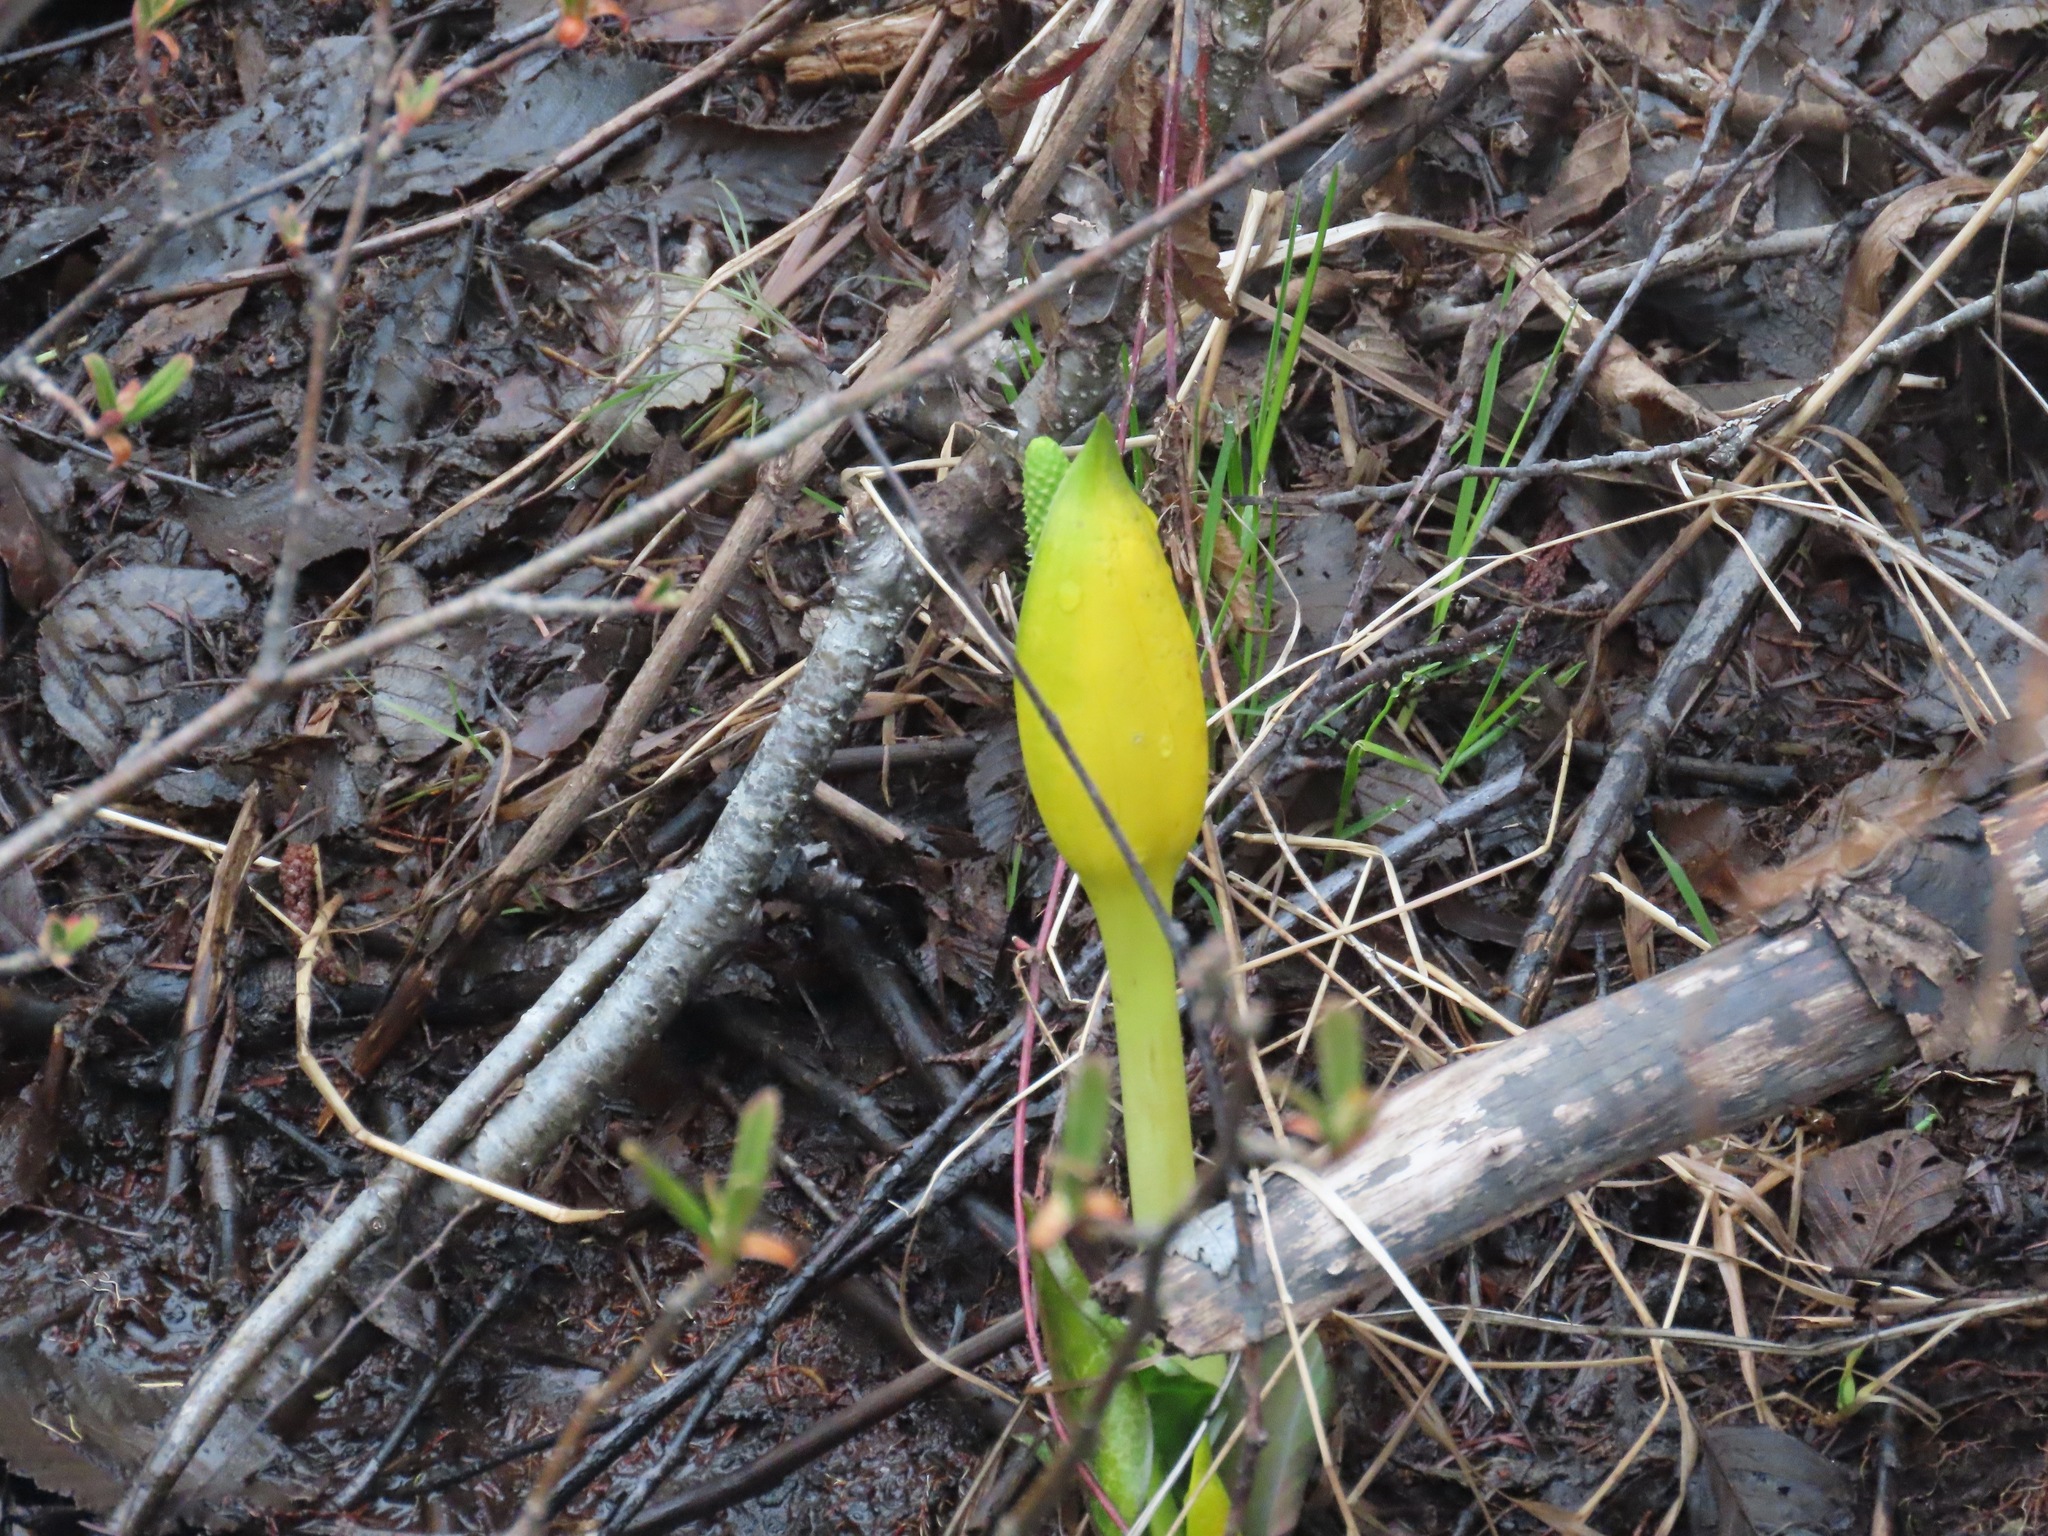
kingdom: Plantae
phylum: Tracheophyta
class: Liliopsida
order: Alismatales
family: Araceae
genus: Lysichiton
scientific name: Lysichiton americanus
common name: American skunk cabbage
